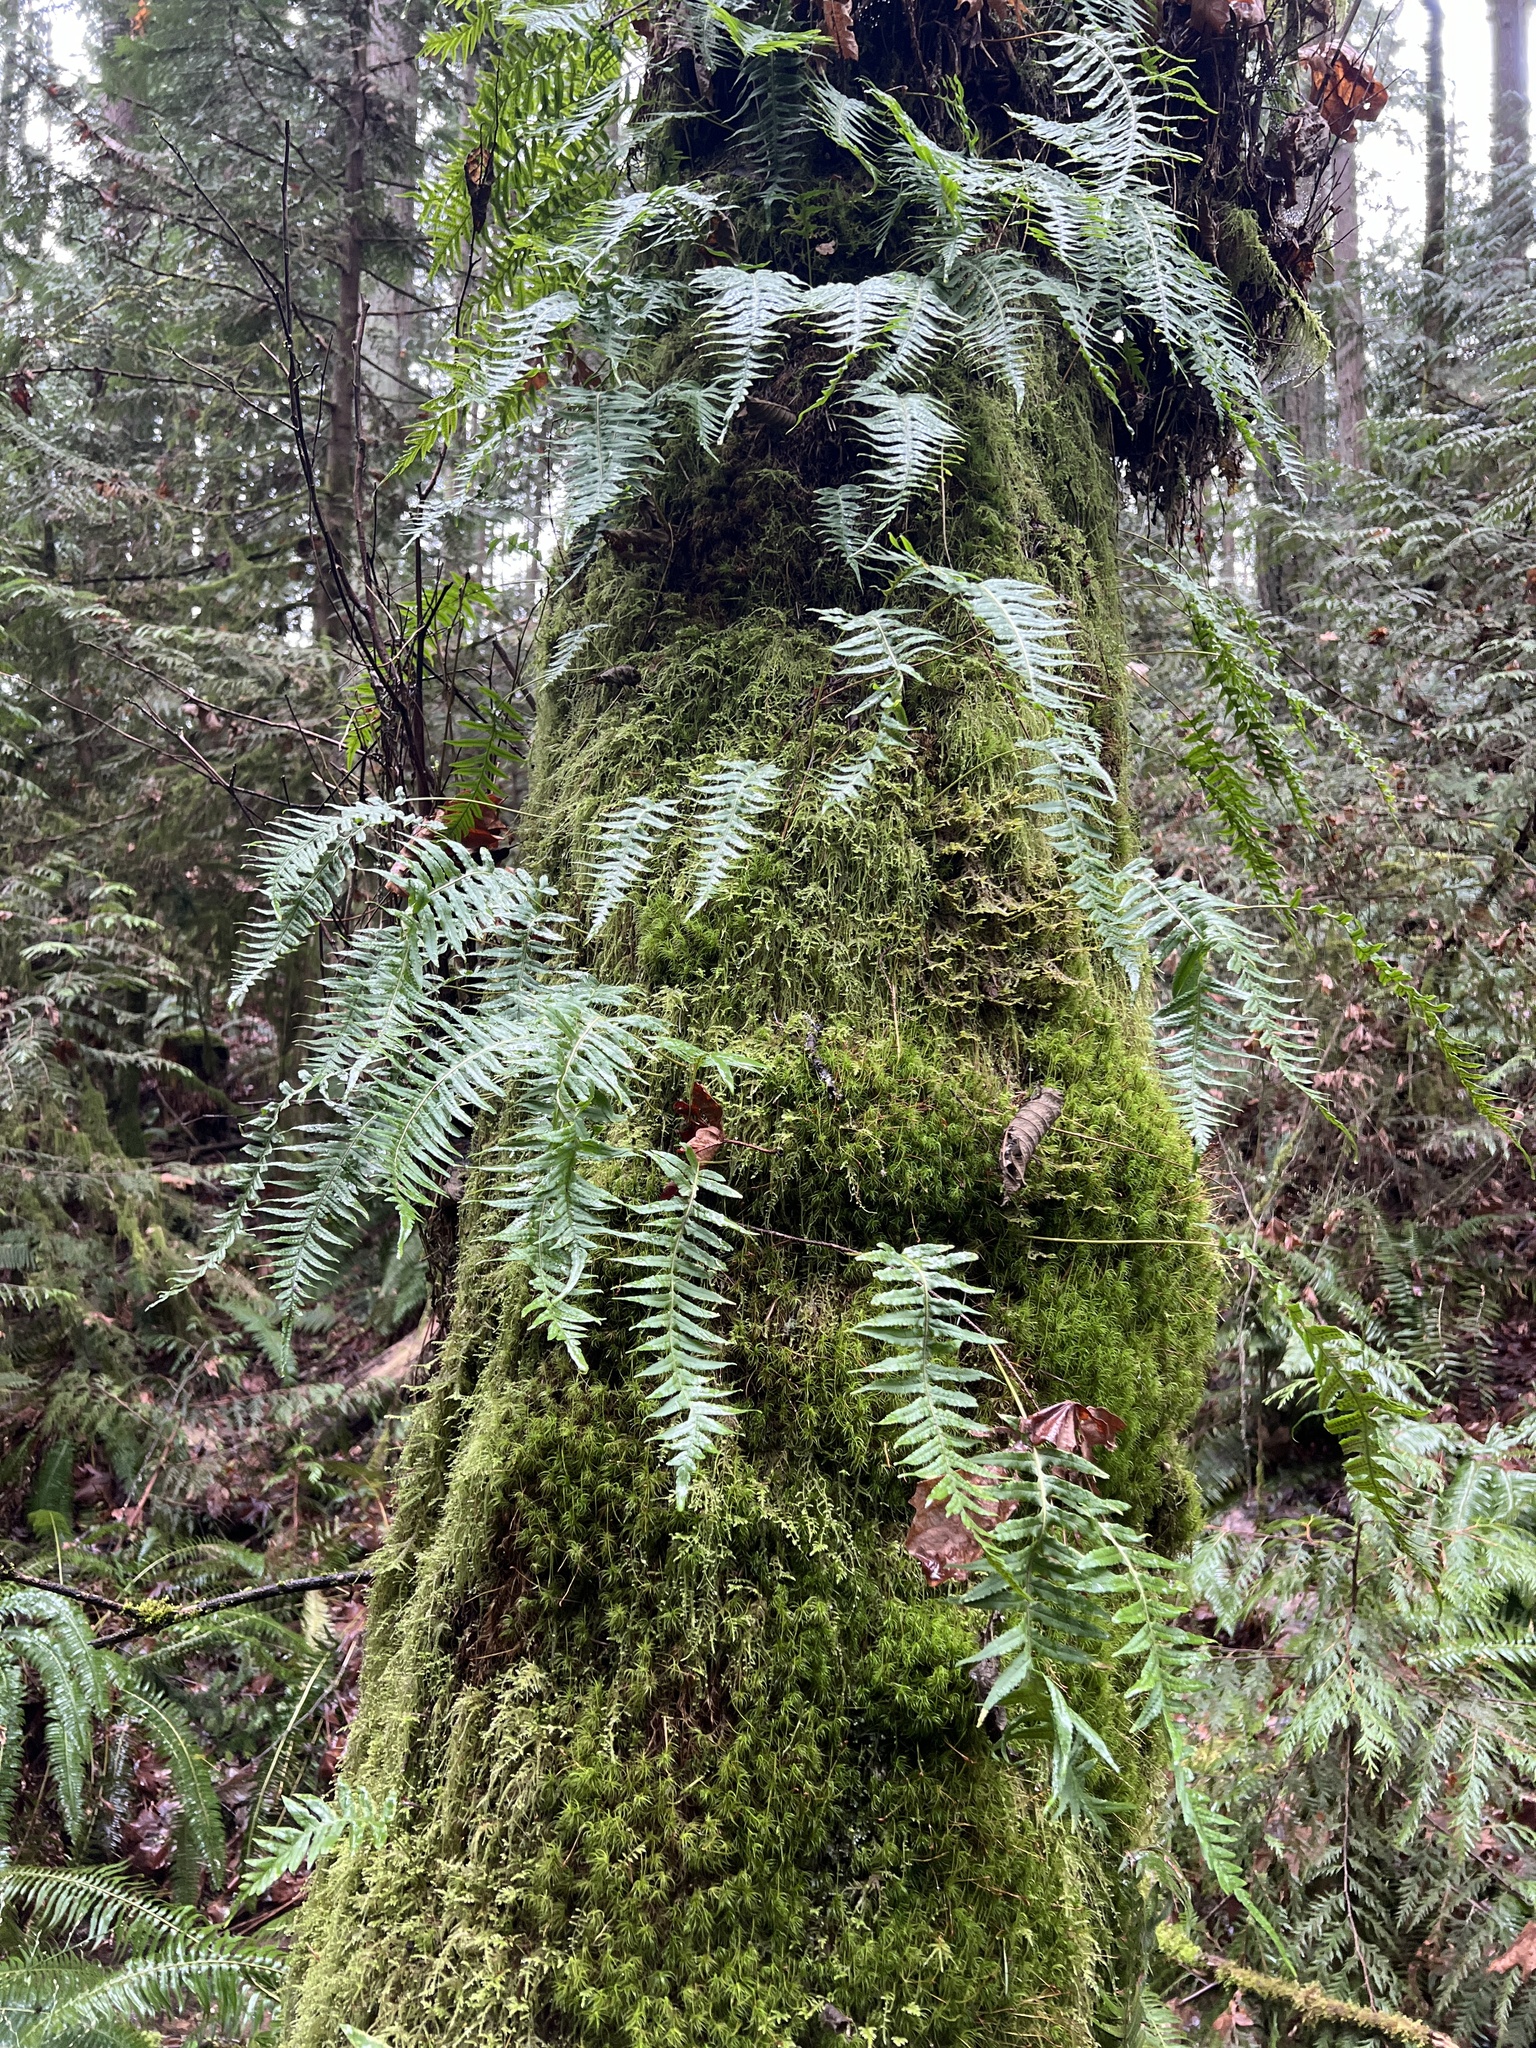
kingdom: Plantae
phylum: Tracheophyta
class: Polypodiopsida
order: Polypodiales
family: Polypodiaceae
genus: Polypodium
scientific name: Polypodium glycyrrhiza
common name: Licorice fern
